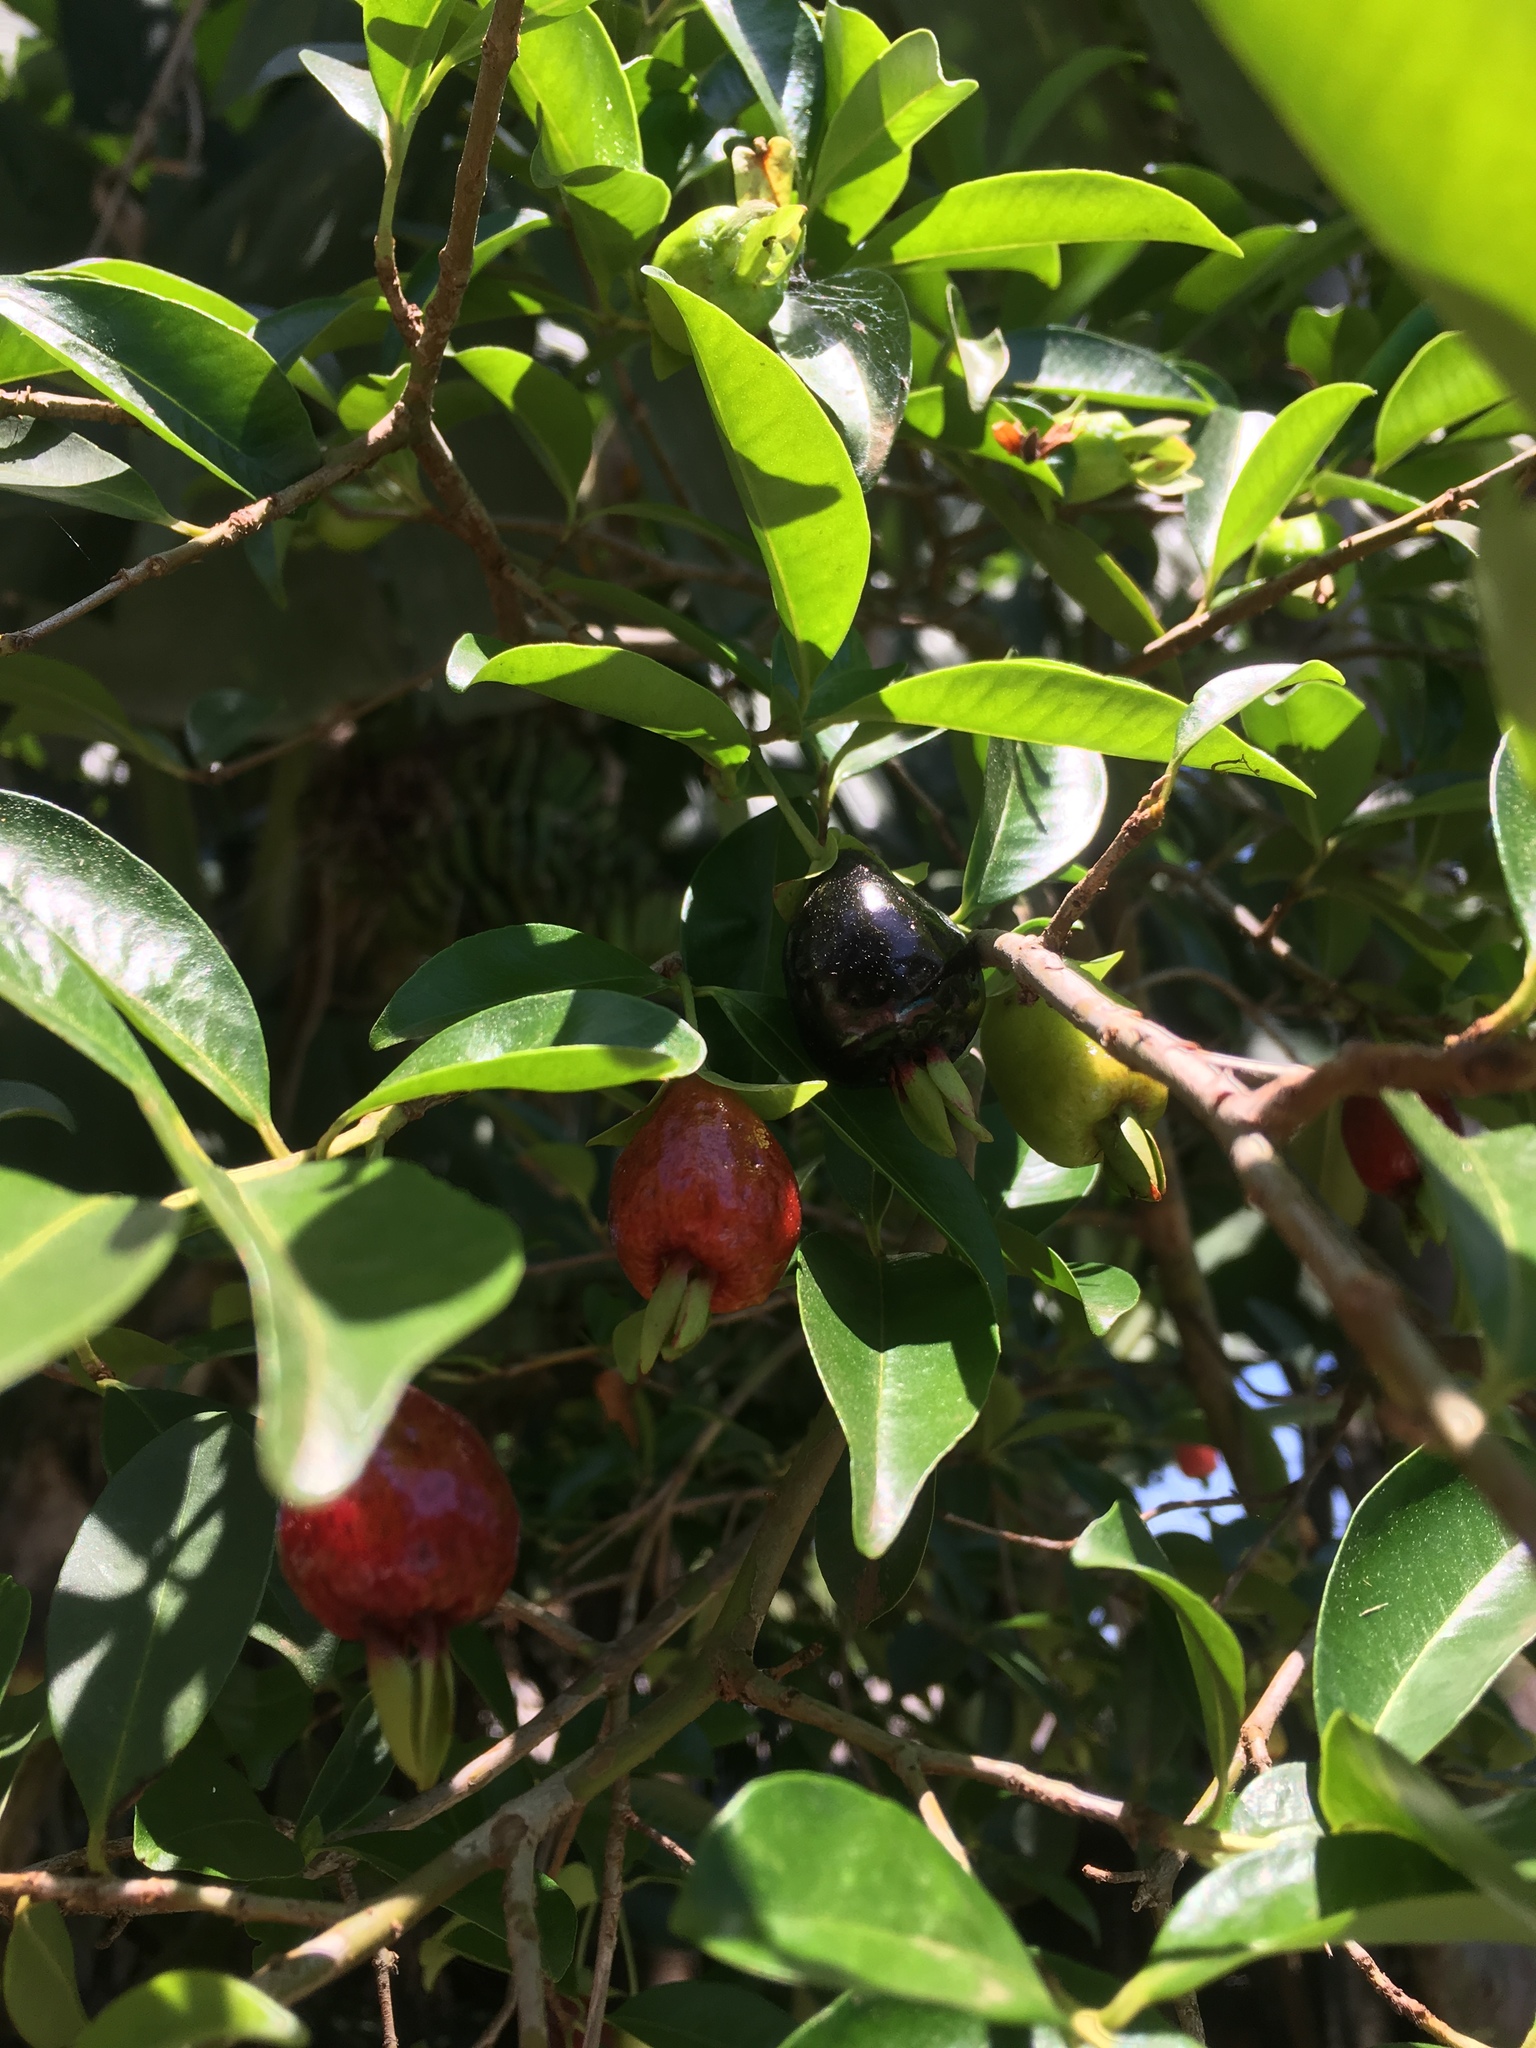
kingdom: Plantae
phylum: Tracheophyta
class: Magnoliopsida
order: Myrtales
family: Myrtaceae
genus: Eugenia
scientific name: Eugenia involucrata
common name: Cherry-of-the-rio grande
